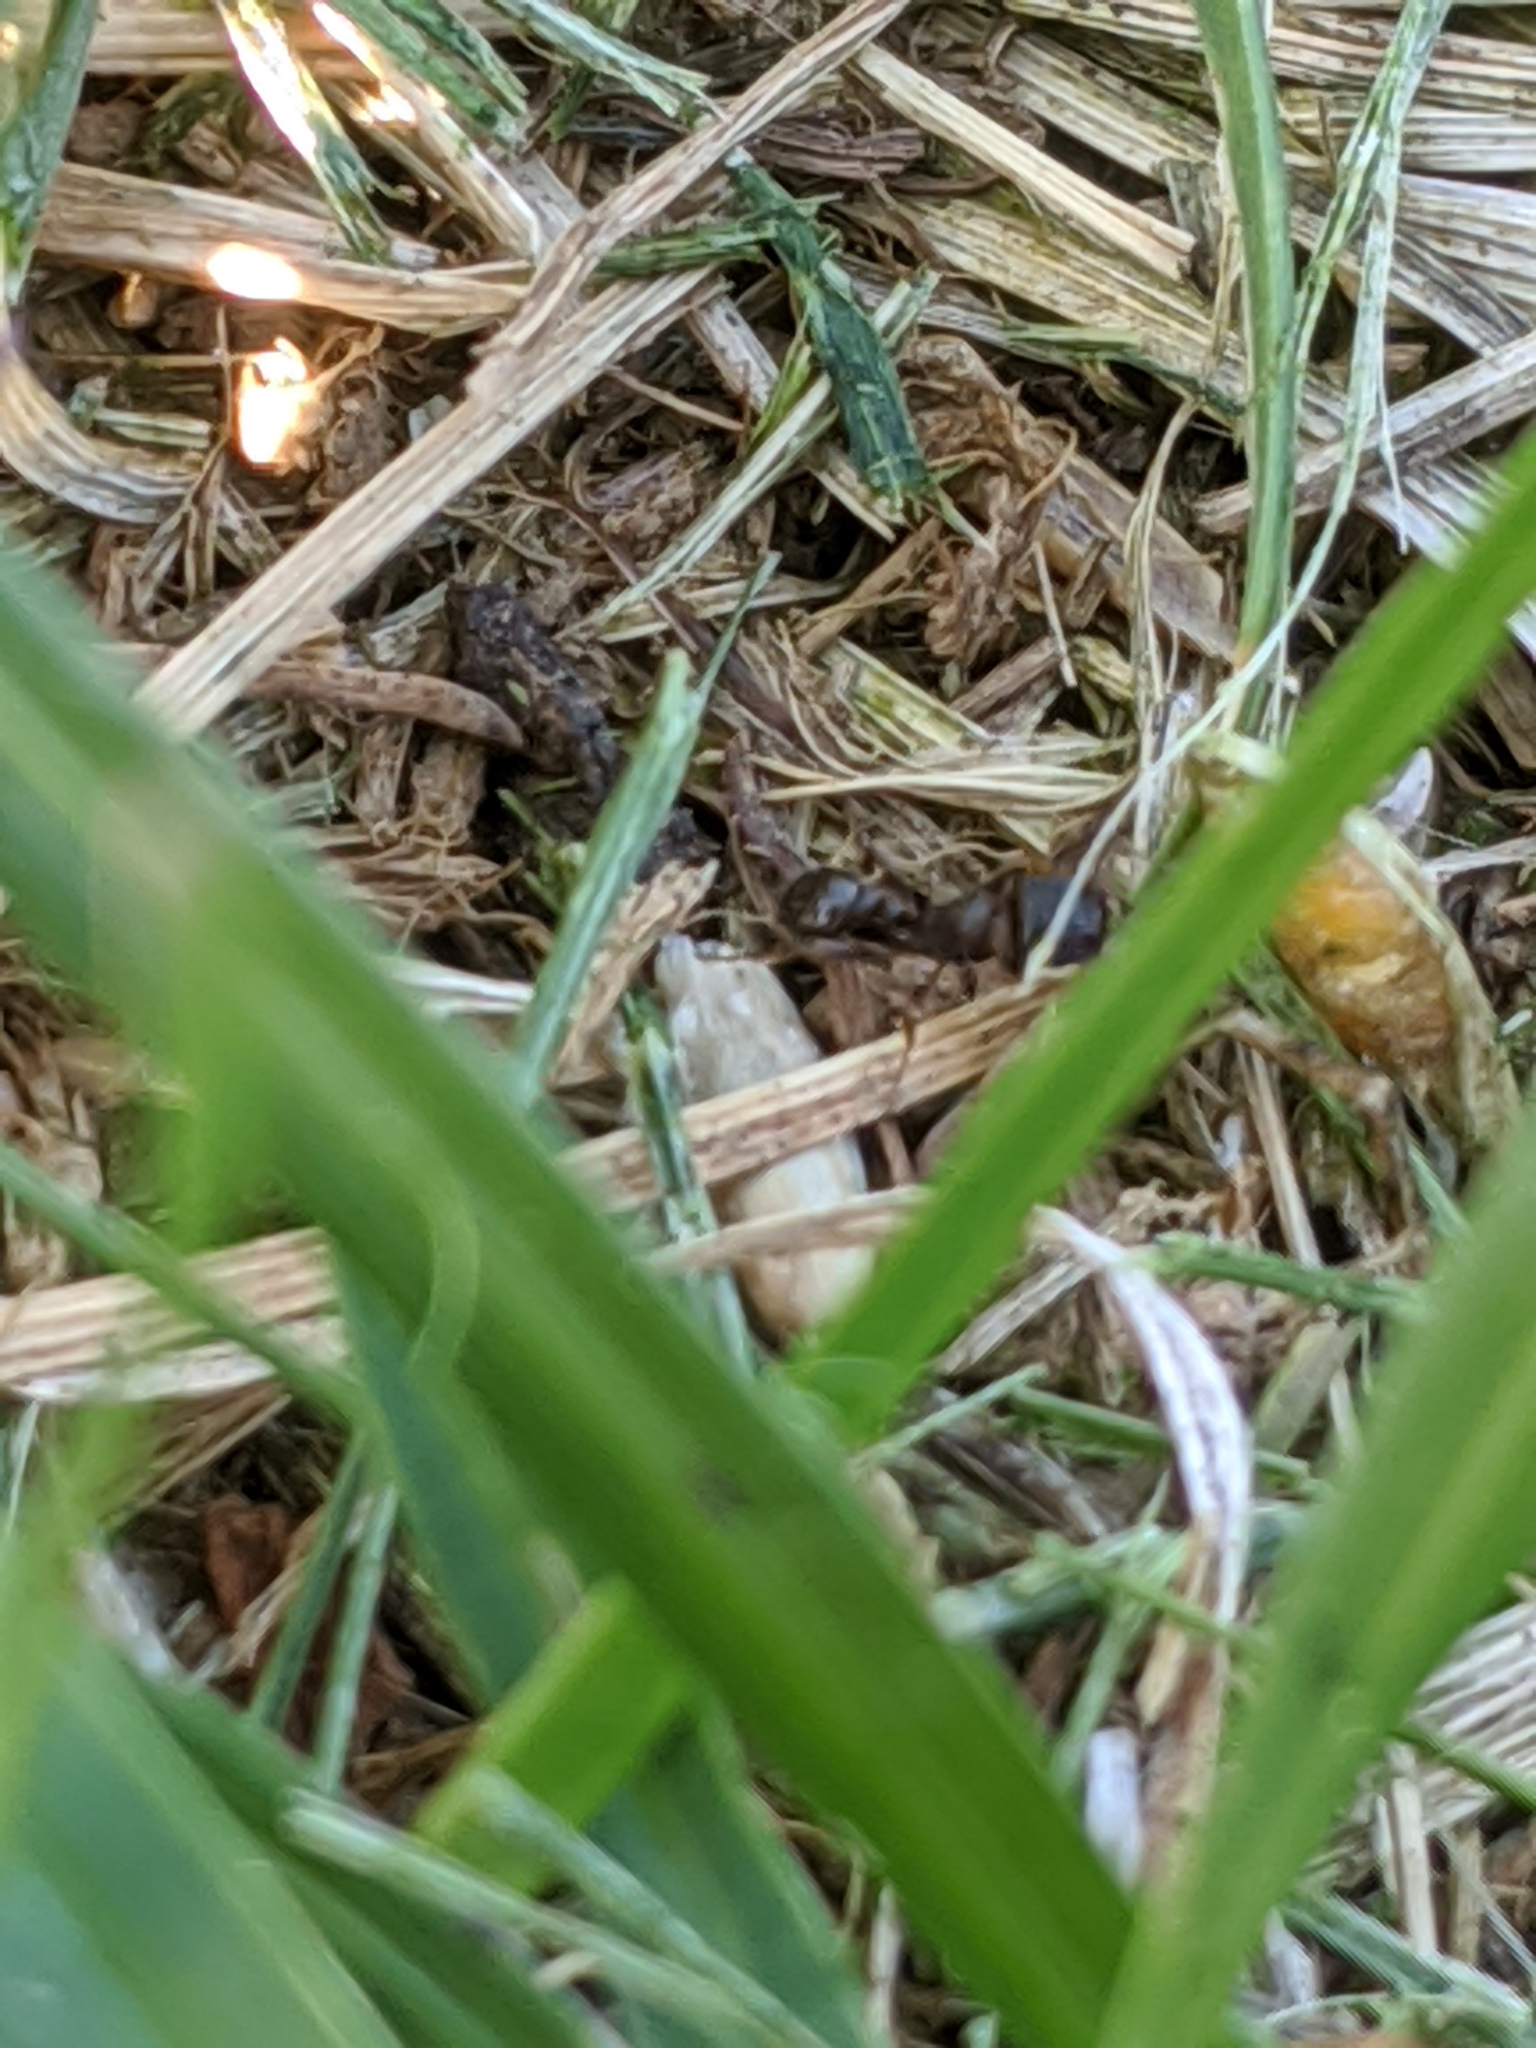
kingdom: Animalia
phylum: Arthropoda
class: Insecta
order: Hymenoptera
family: Formicidae
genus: Tetramorium
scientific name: Tetramorium immigrans
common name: Pavement ant
